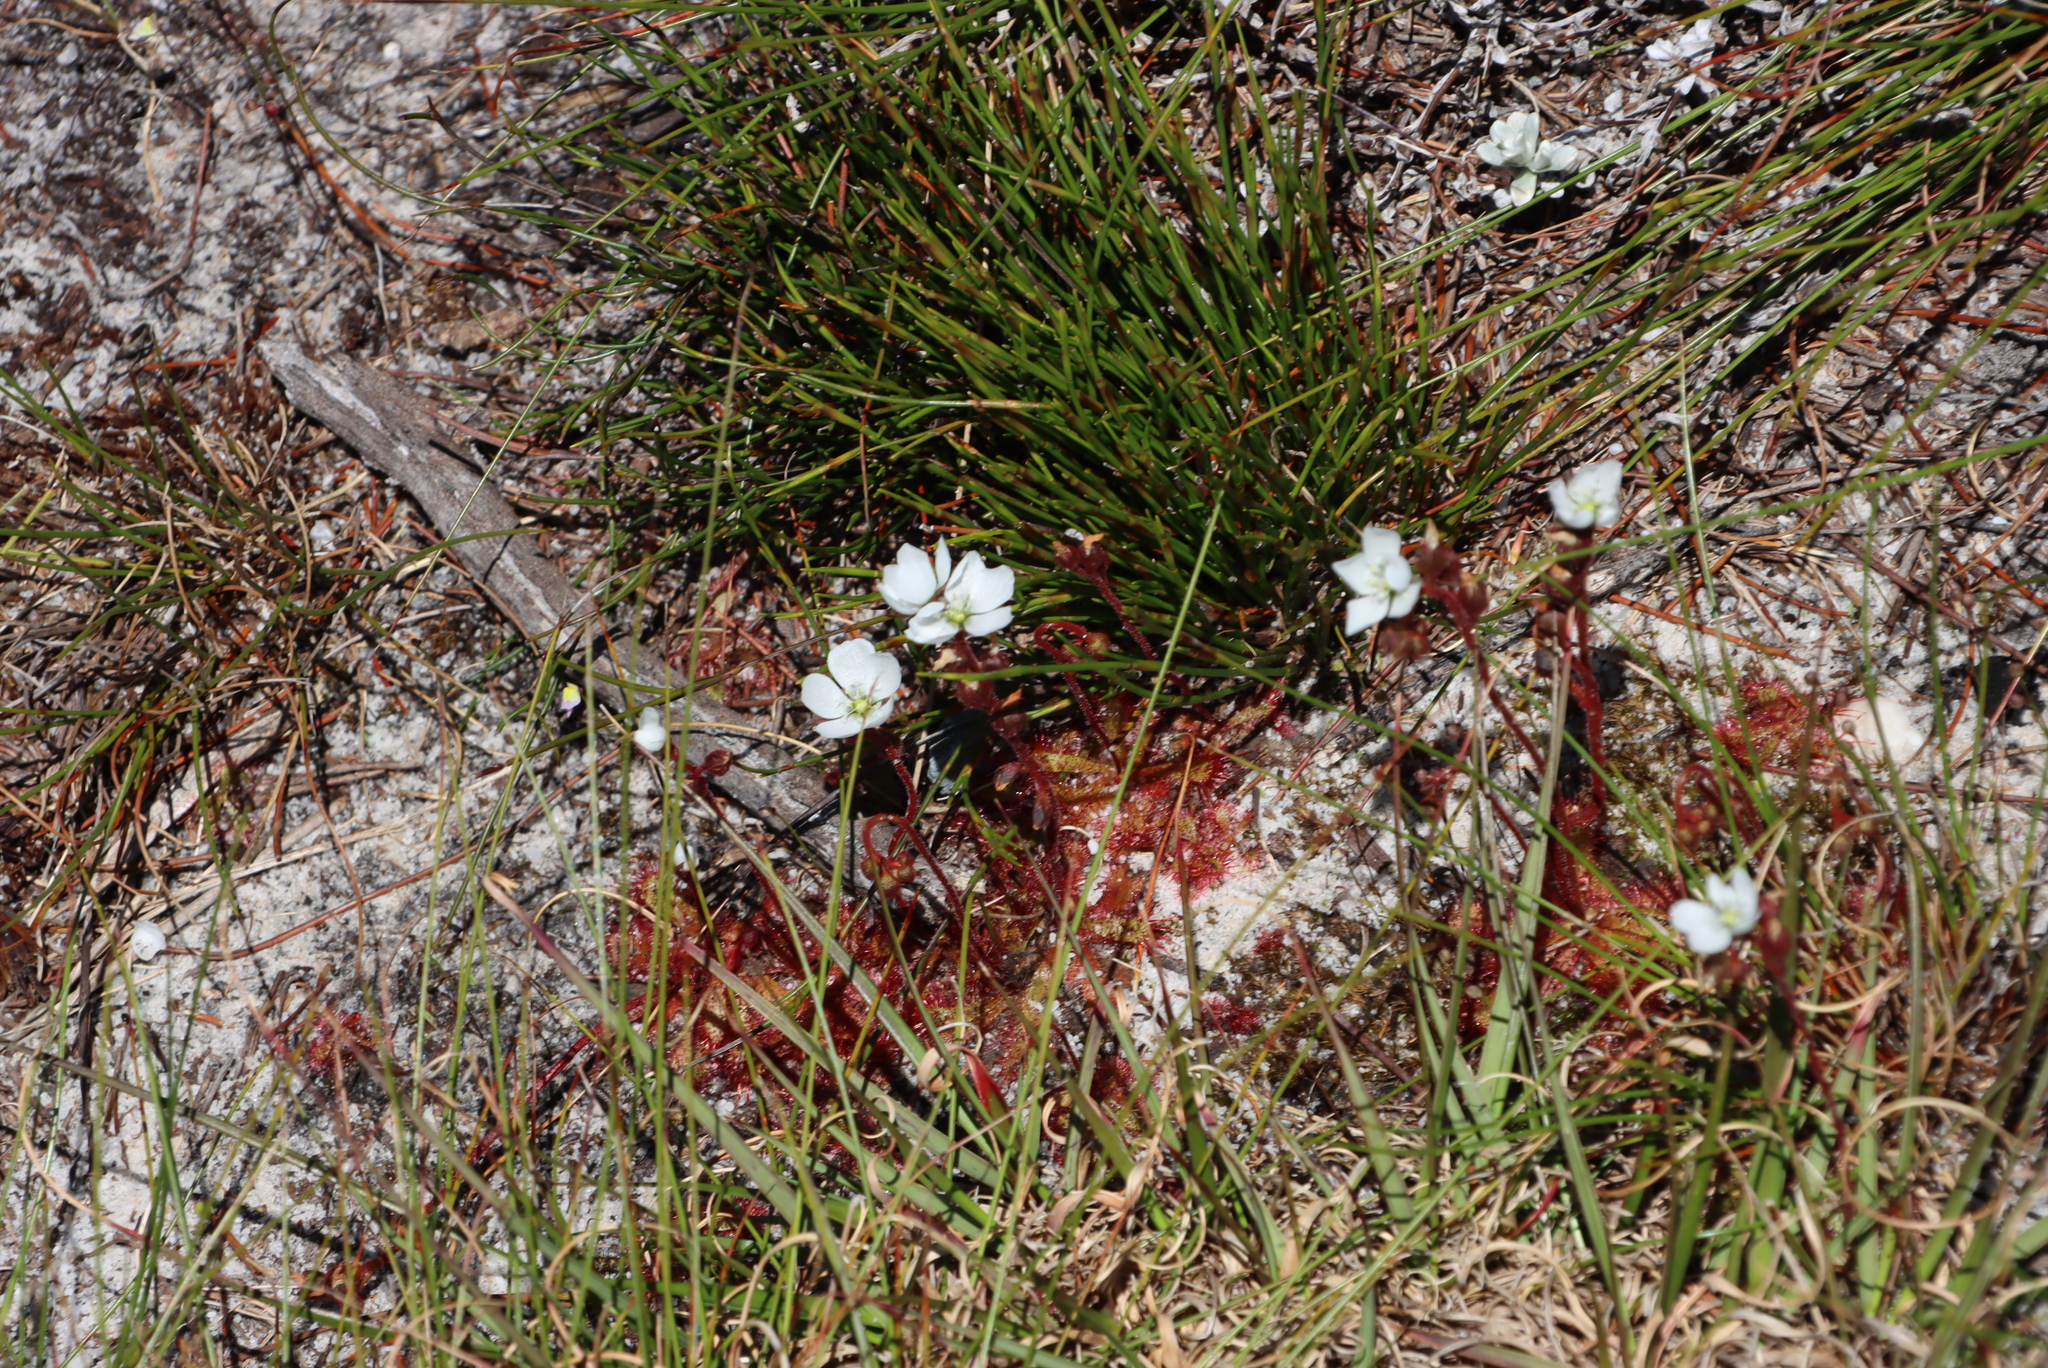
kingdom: Plantae
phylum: Tracheophyta
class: Magnoliopsida
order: Caryophyllales
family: Droseraceae
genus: Drosera
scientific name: Drosera trinervia
